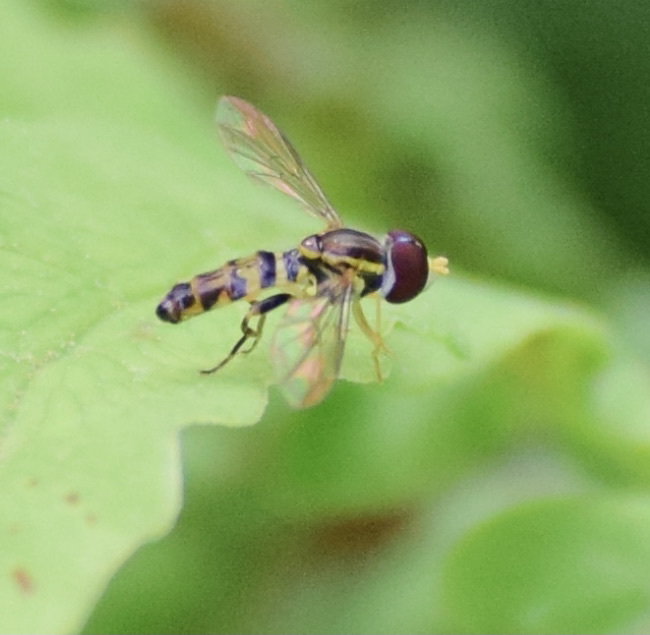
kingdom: Animalia
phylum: Arthropoda
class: Insecta
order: Diptera
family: Syrphidae
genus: Toxomerus
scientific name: Toxomerus geminatus
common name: Eastern calligrapher
